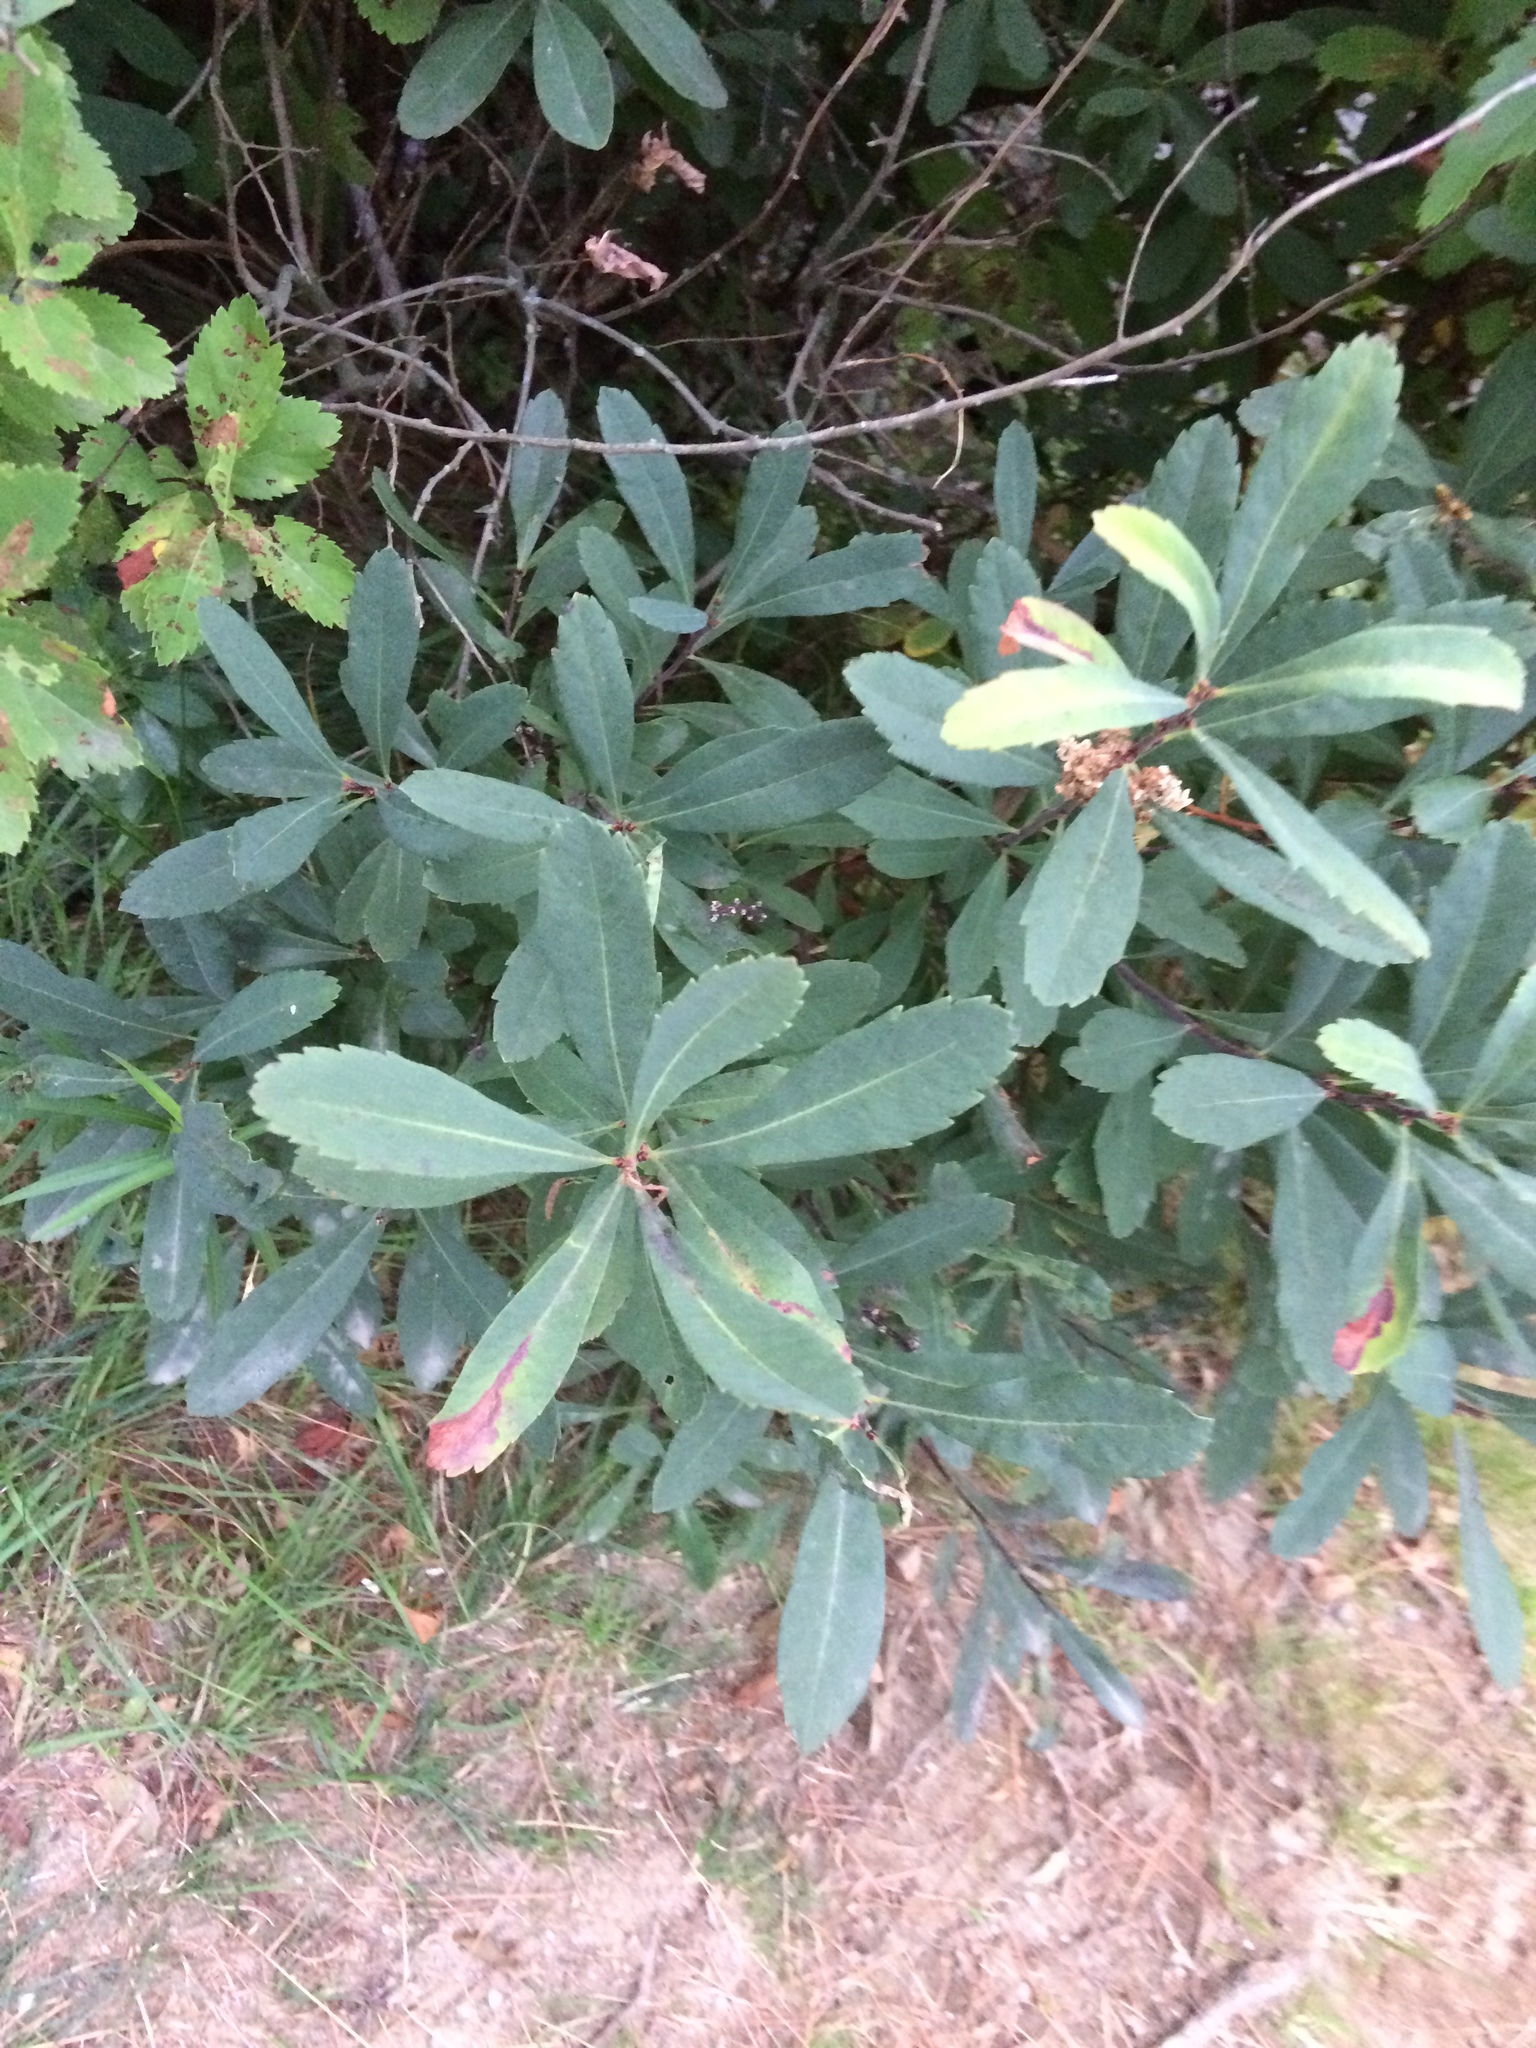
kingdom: Plantae
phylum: Tracheophyta
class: Magnoliopsida
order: Fagales
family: Myricaceae
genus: Myrica
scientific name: Myrica gale
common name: Sweet gale
